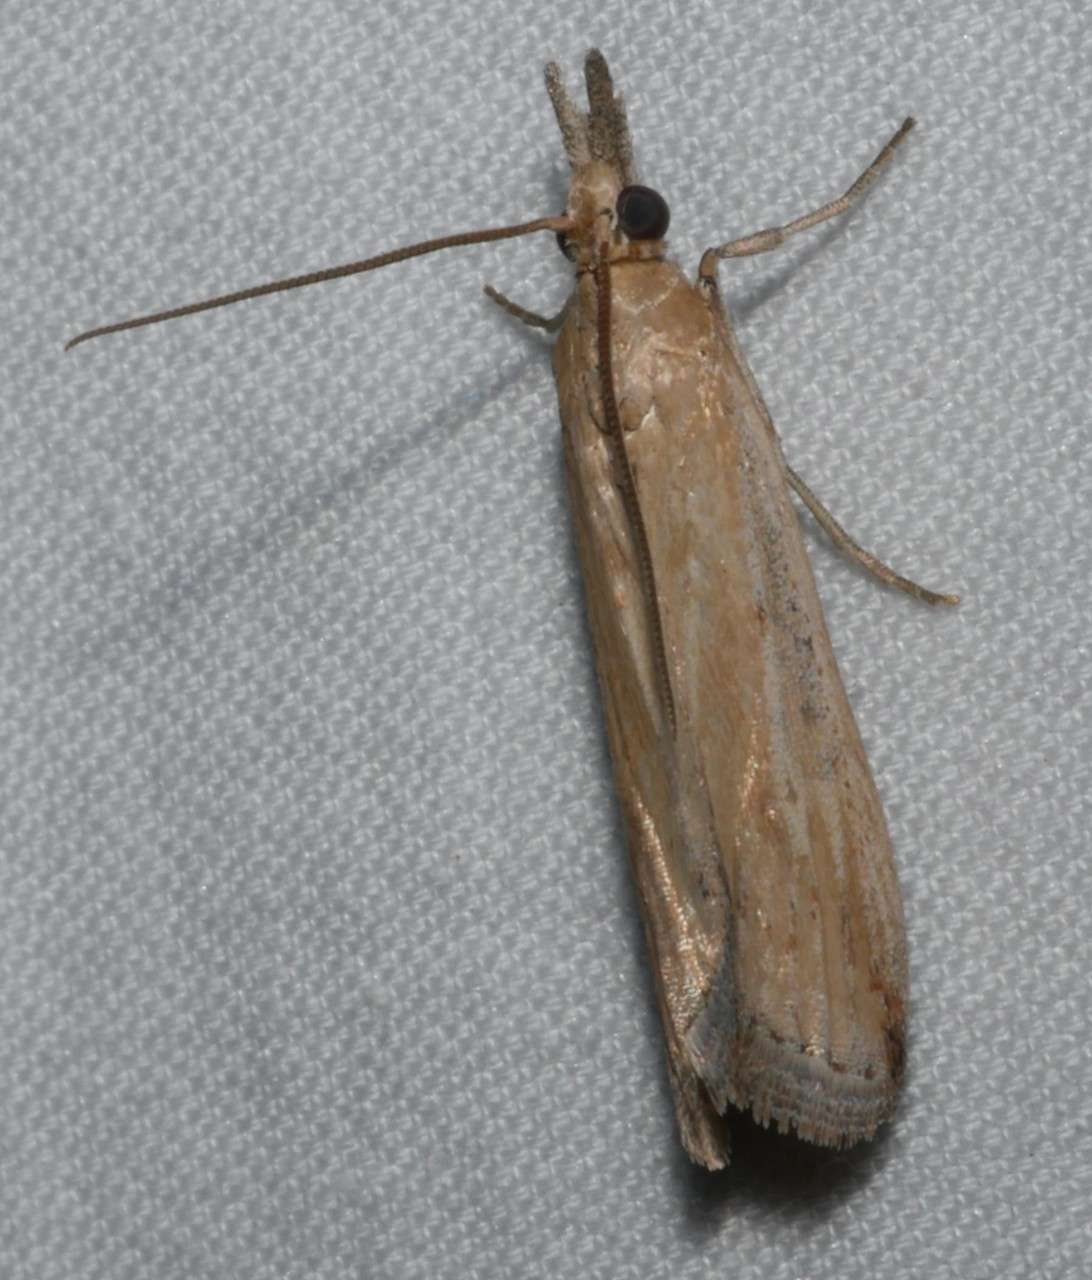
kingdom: Animalia
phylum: Arthropoda
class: Insecta
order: Lepidoptera
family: Pyralidae
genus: Faveria
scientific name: Faveria tritalis
